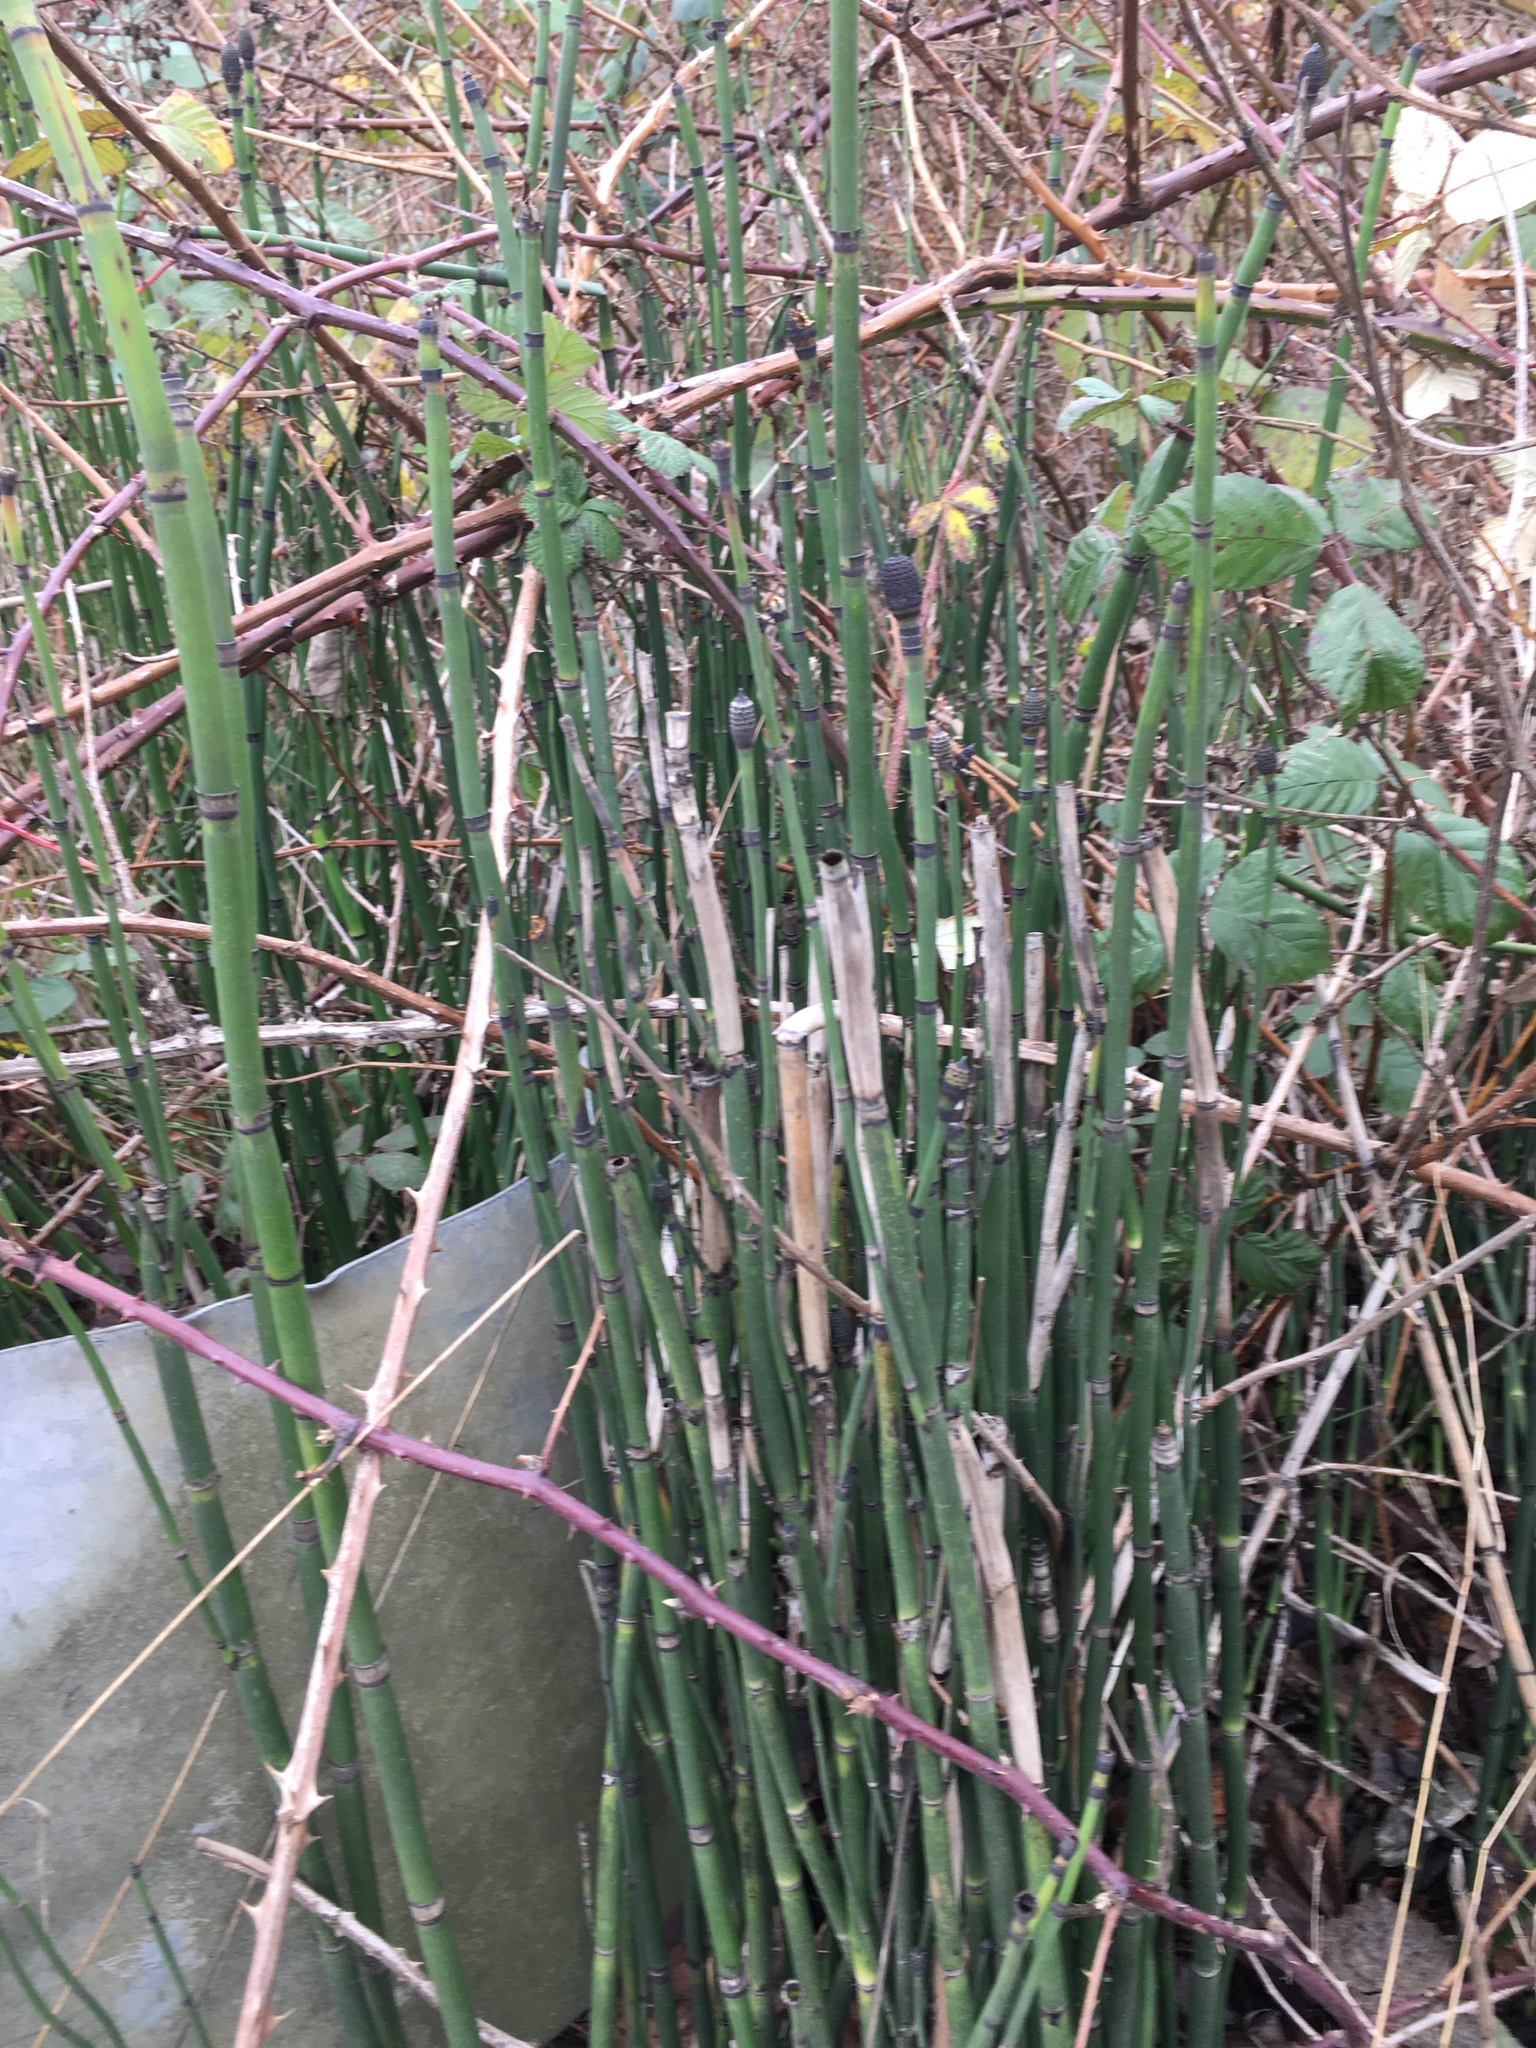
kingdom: Plantae
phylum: Tracheophyta
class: Polypodiopsida
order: Equisetales
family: Equisetaceae
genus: Equisetum
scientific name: Equisetum hyemale
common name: Rough horsetail
